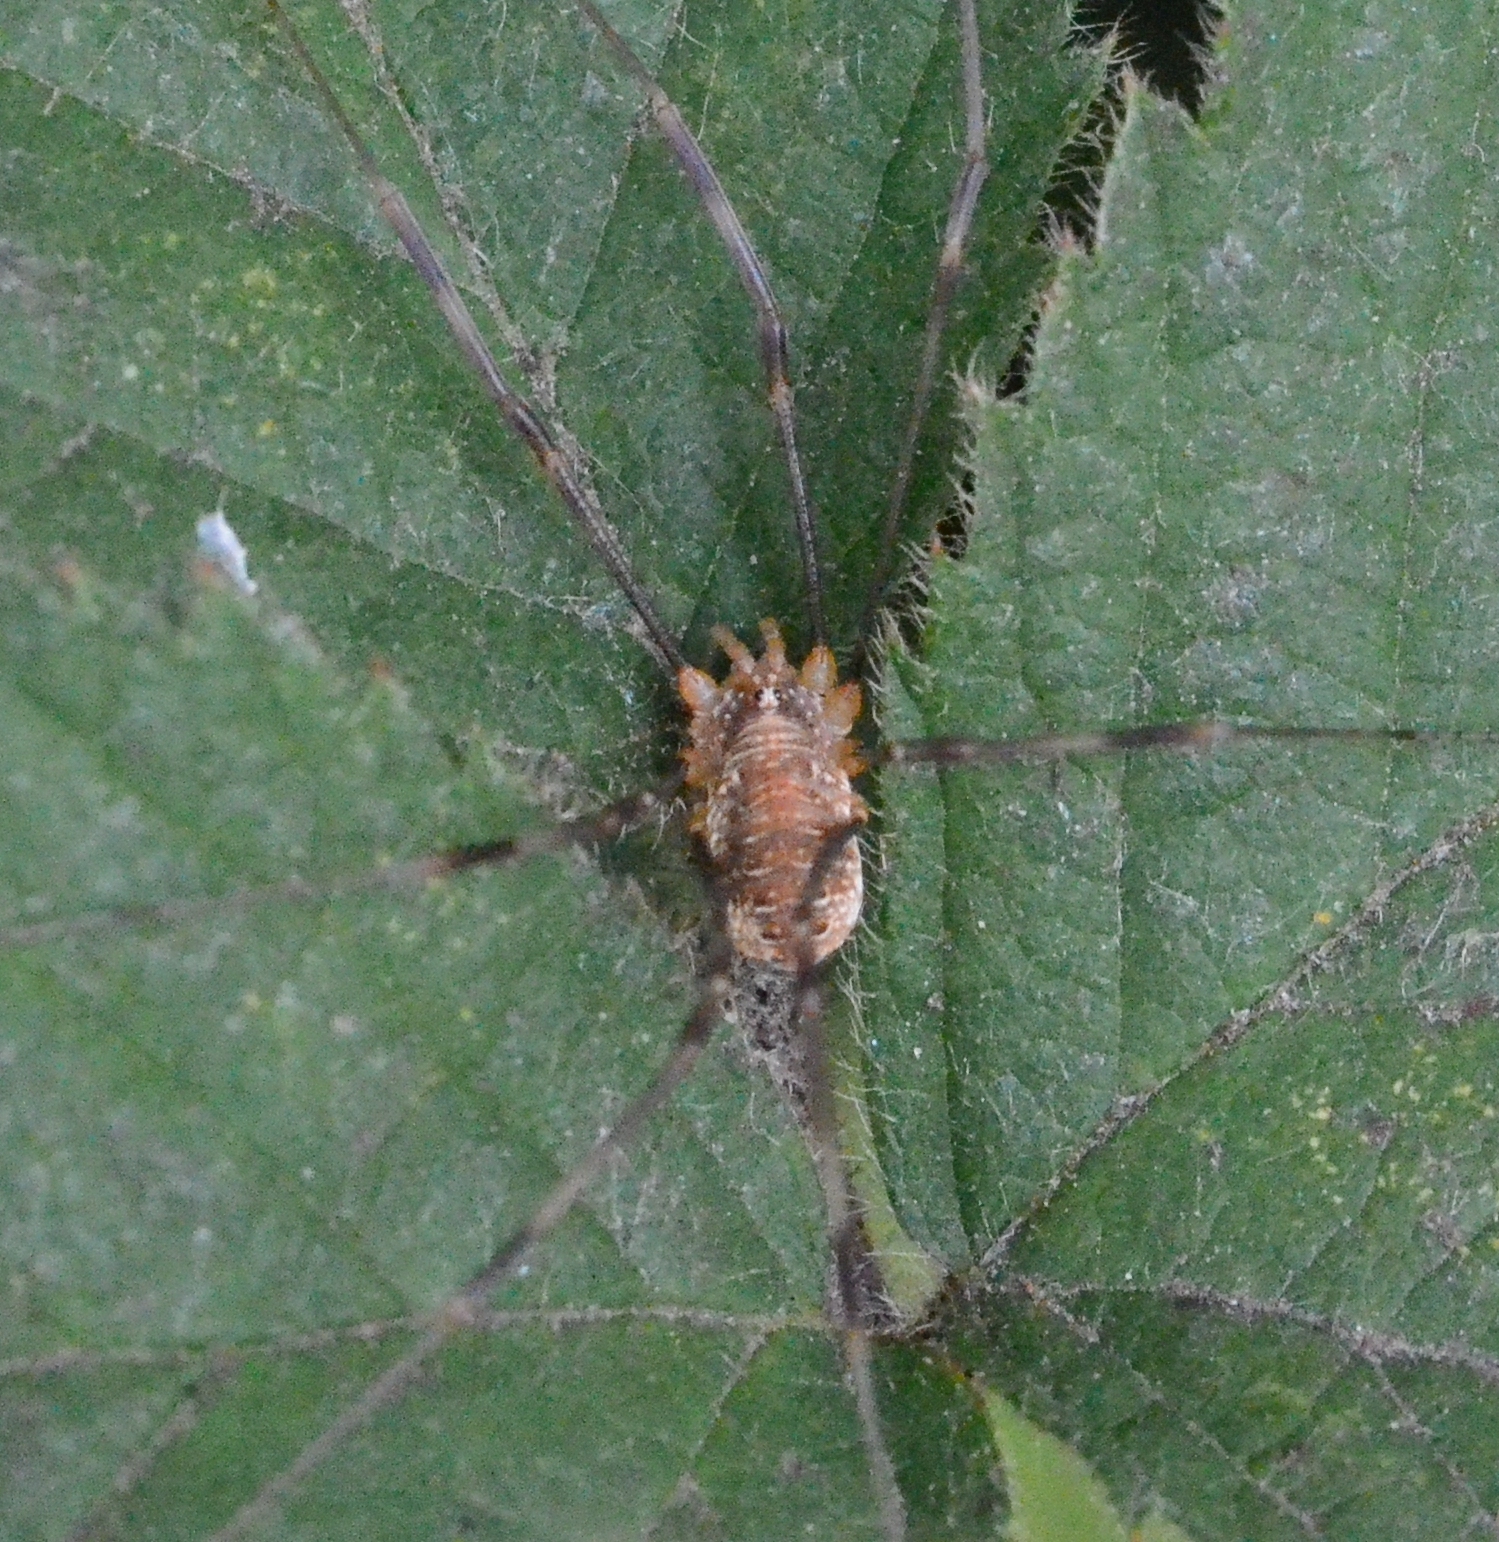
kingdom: Animalia
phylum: Arthropoda
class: Arachnida
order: Opiliones
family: Phalangiidae
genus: Opilio
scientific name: Opilio canestrinii
